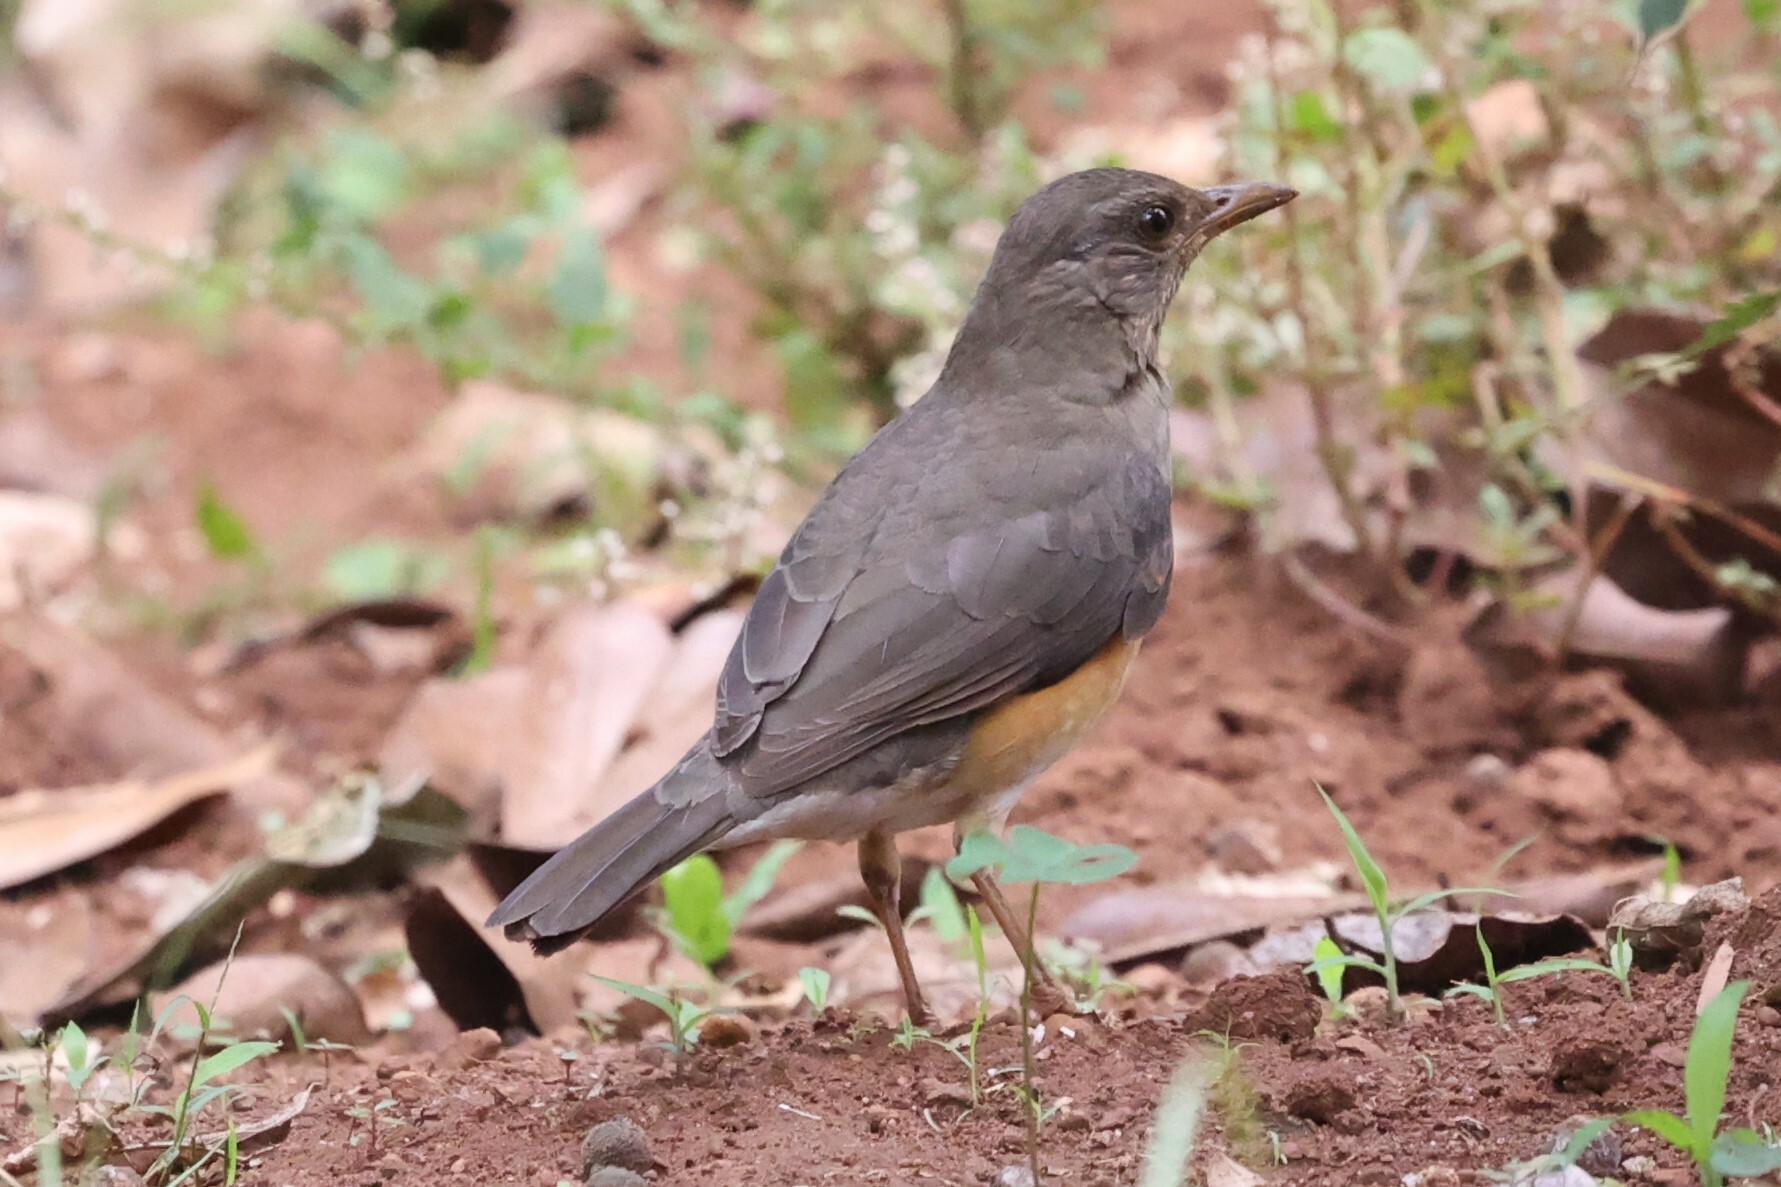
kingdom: Animalia
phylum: Chordata
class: Aves
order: Passeriformes
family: Turdidae
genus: Turdus
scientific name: Turdus pelios
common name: African thrush
